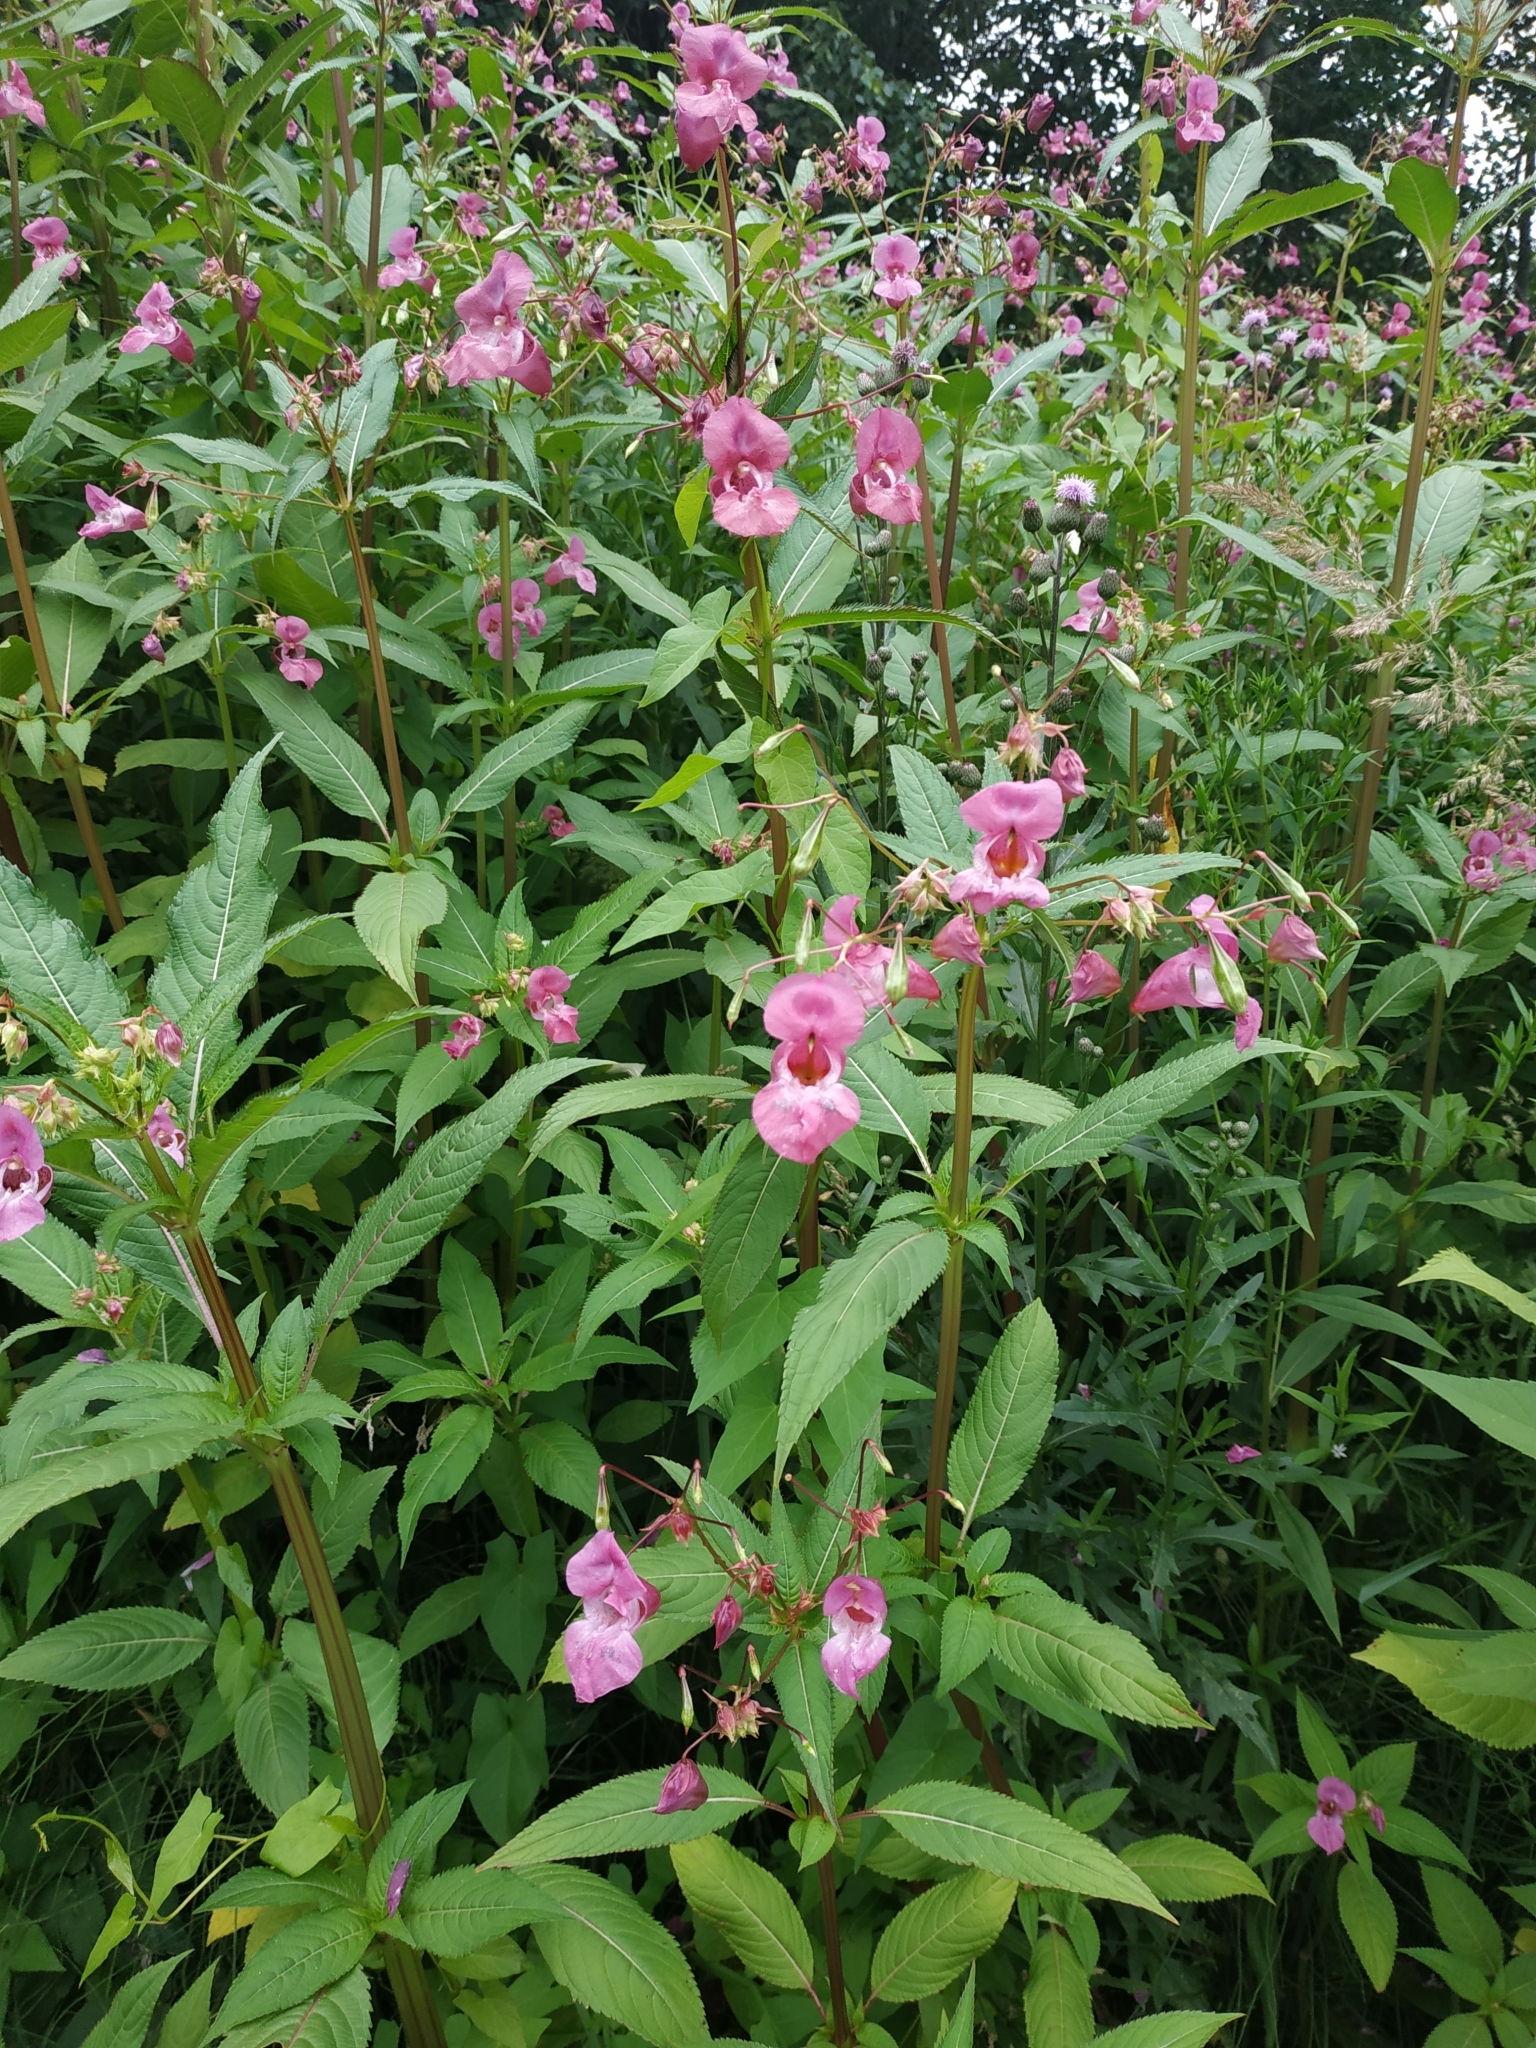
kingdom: Plantae
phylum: Tracheophyta
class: Magnoliopsida
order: Ericales
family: Balsaminaceae
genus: Impatiens
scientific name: Impatiens glandulifera
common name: Himalayan balsam
